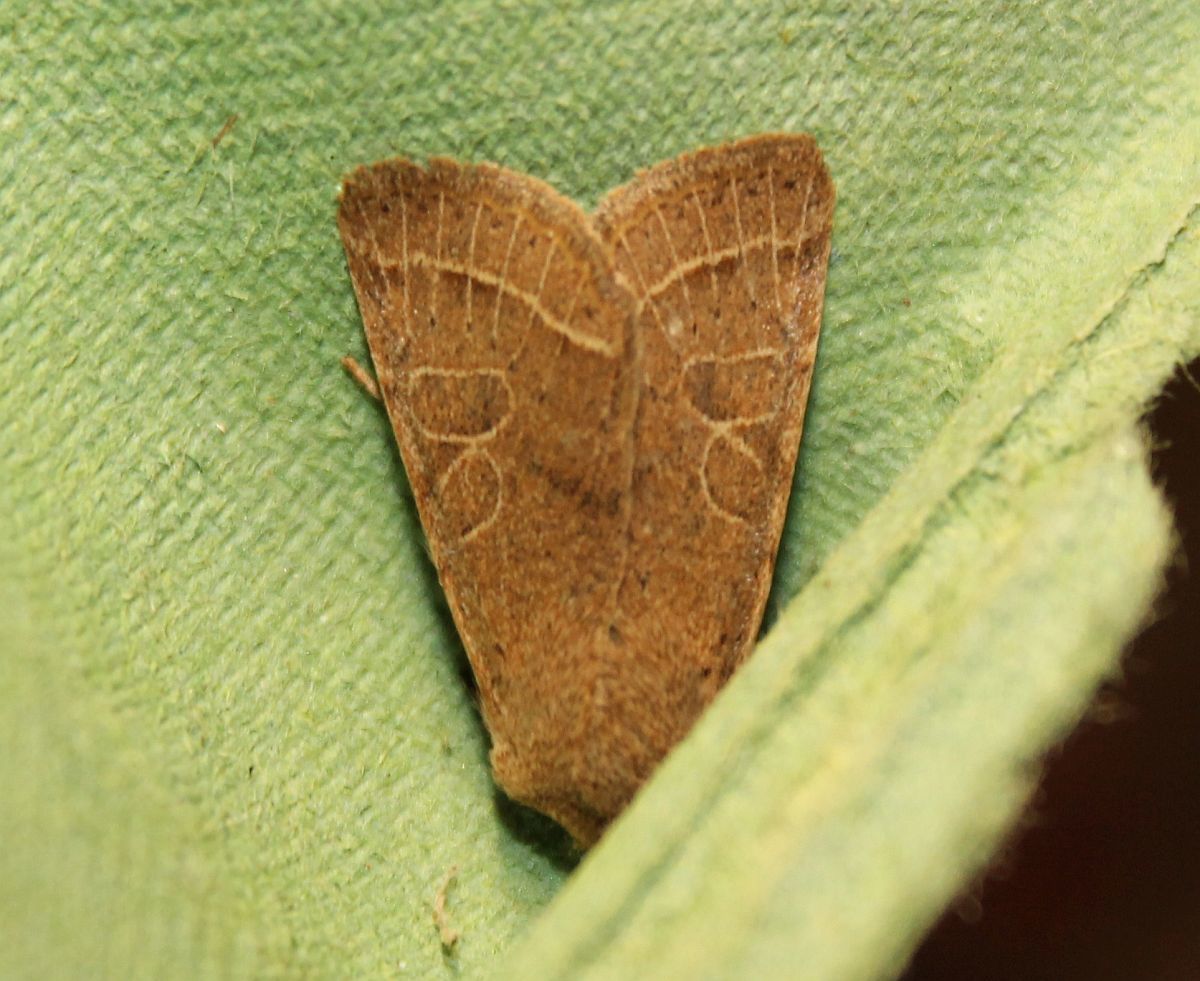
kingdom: Animalia
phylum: Arthropoda
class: Insecta
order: Lepidoptera
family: Noctuidae
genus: Orthosia
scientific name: Orthosia cerasi
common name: Common quaker
